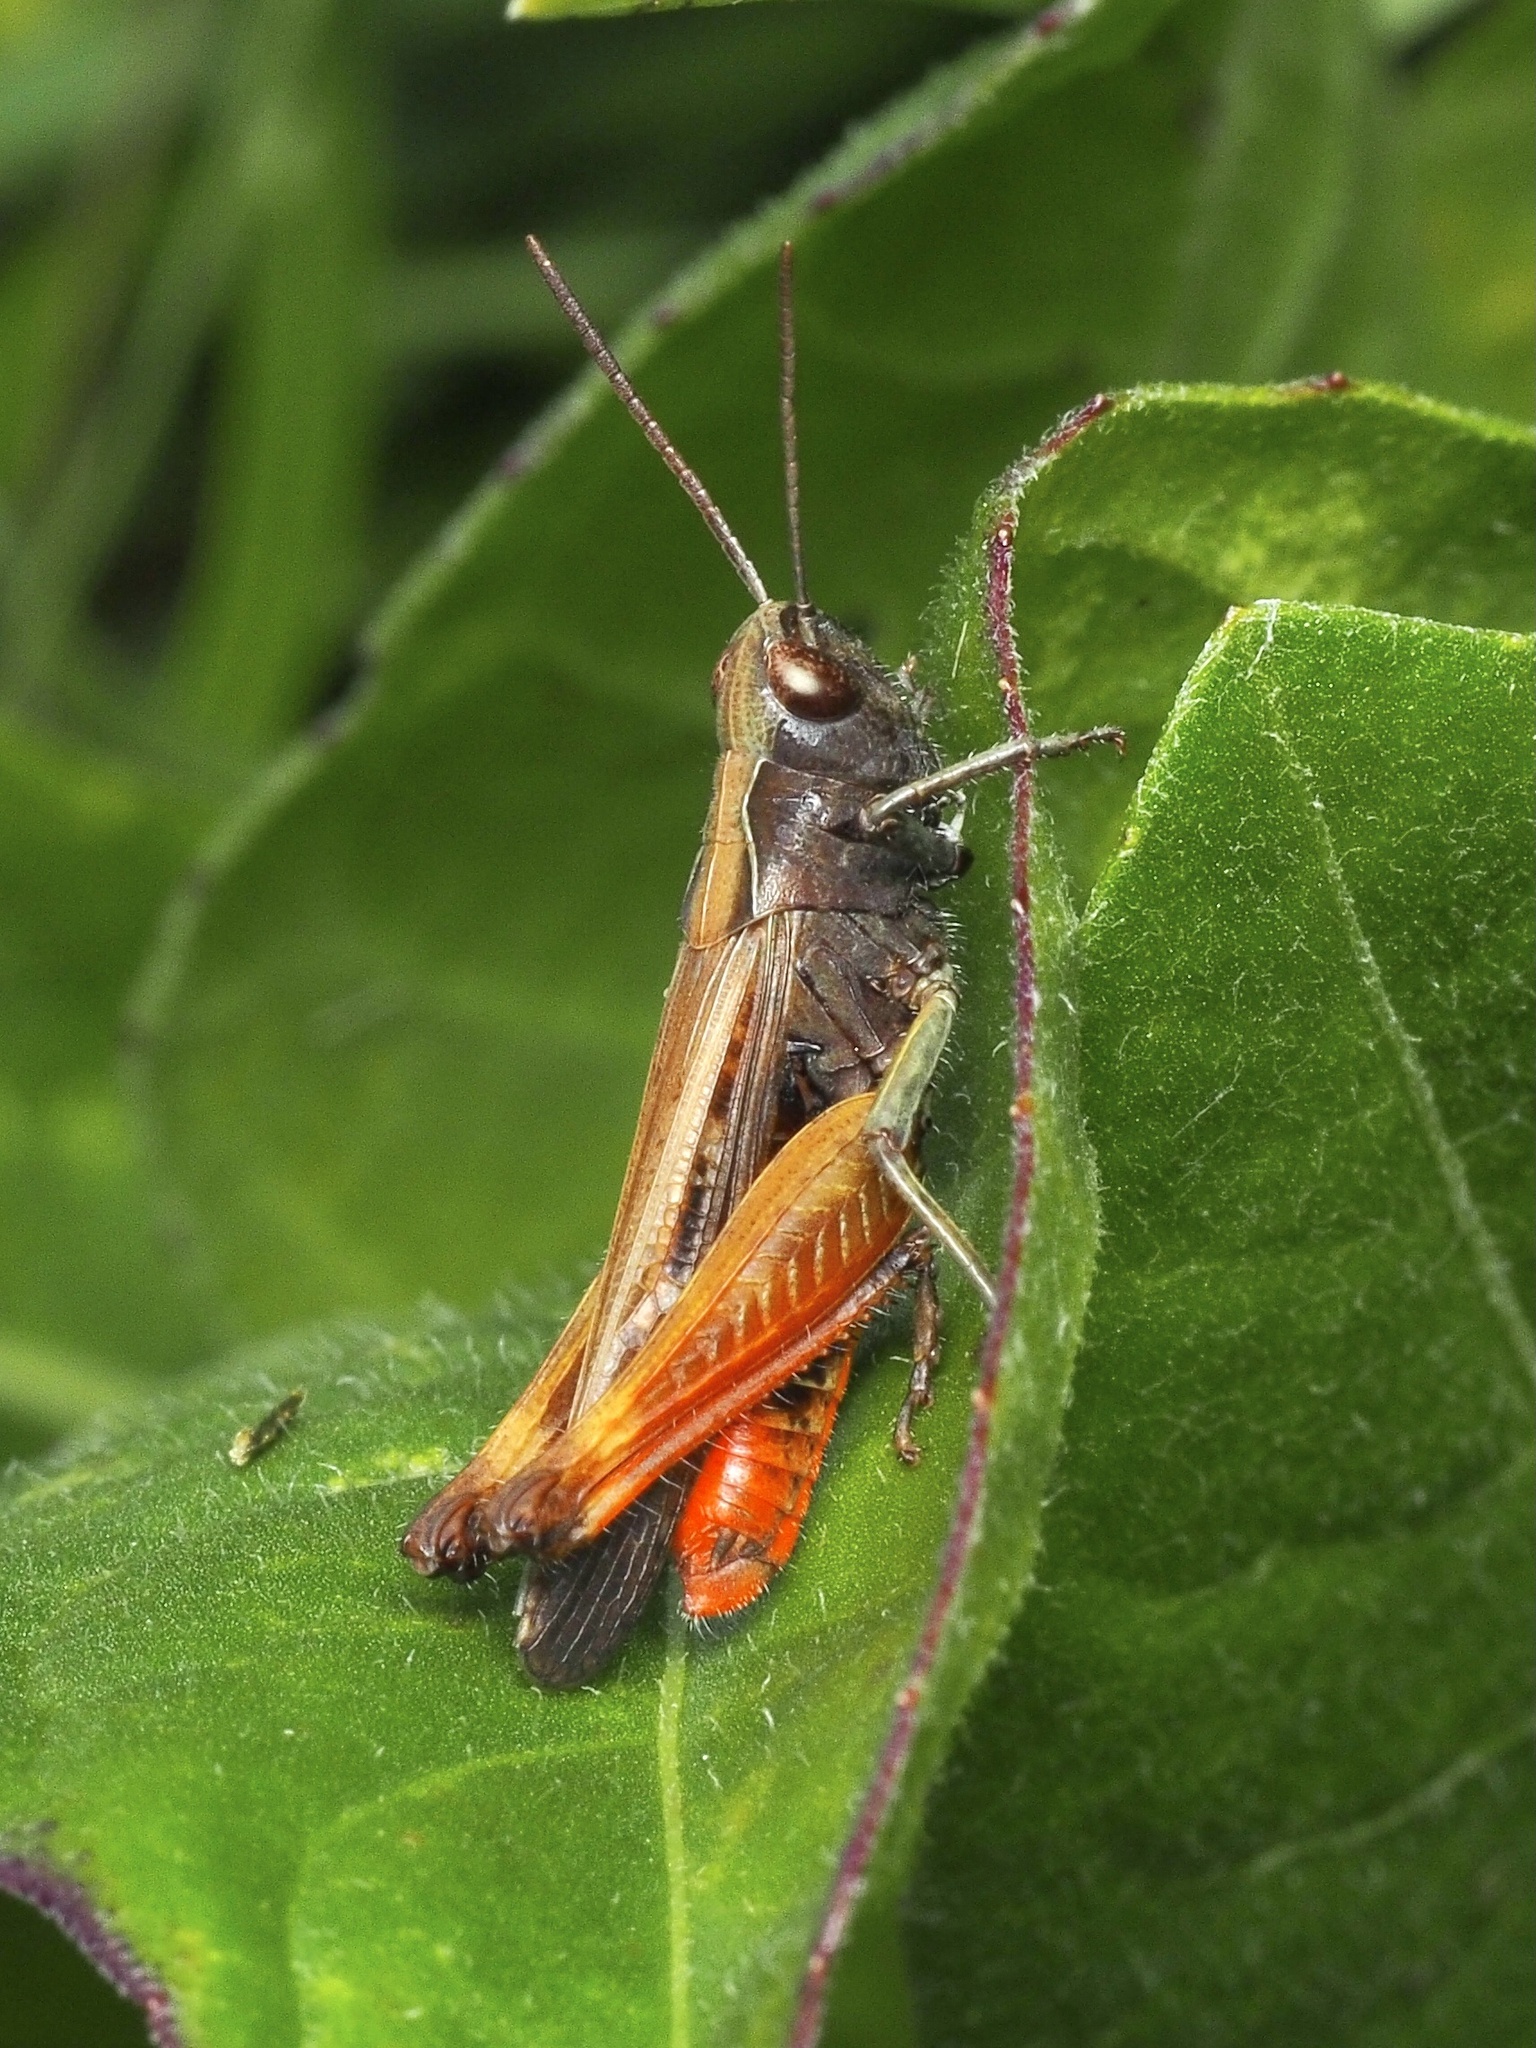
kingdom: Animalia
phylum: Arthropoda
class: Insecta
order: Orthoptera
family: Acrididae
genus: Omocestus
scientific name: Omocestus rufipes
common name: Woodland grasshopper
